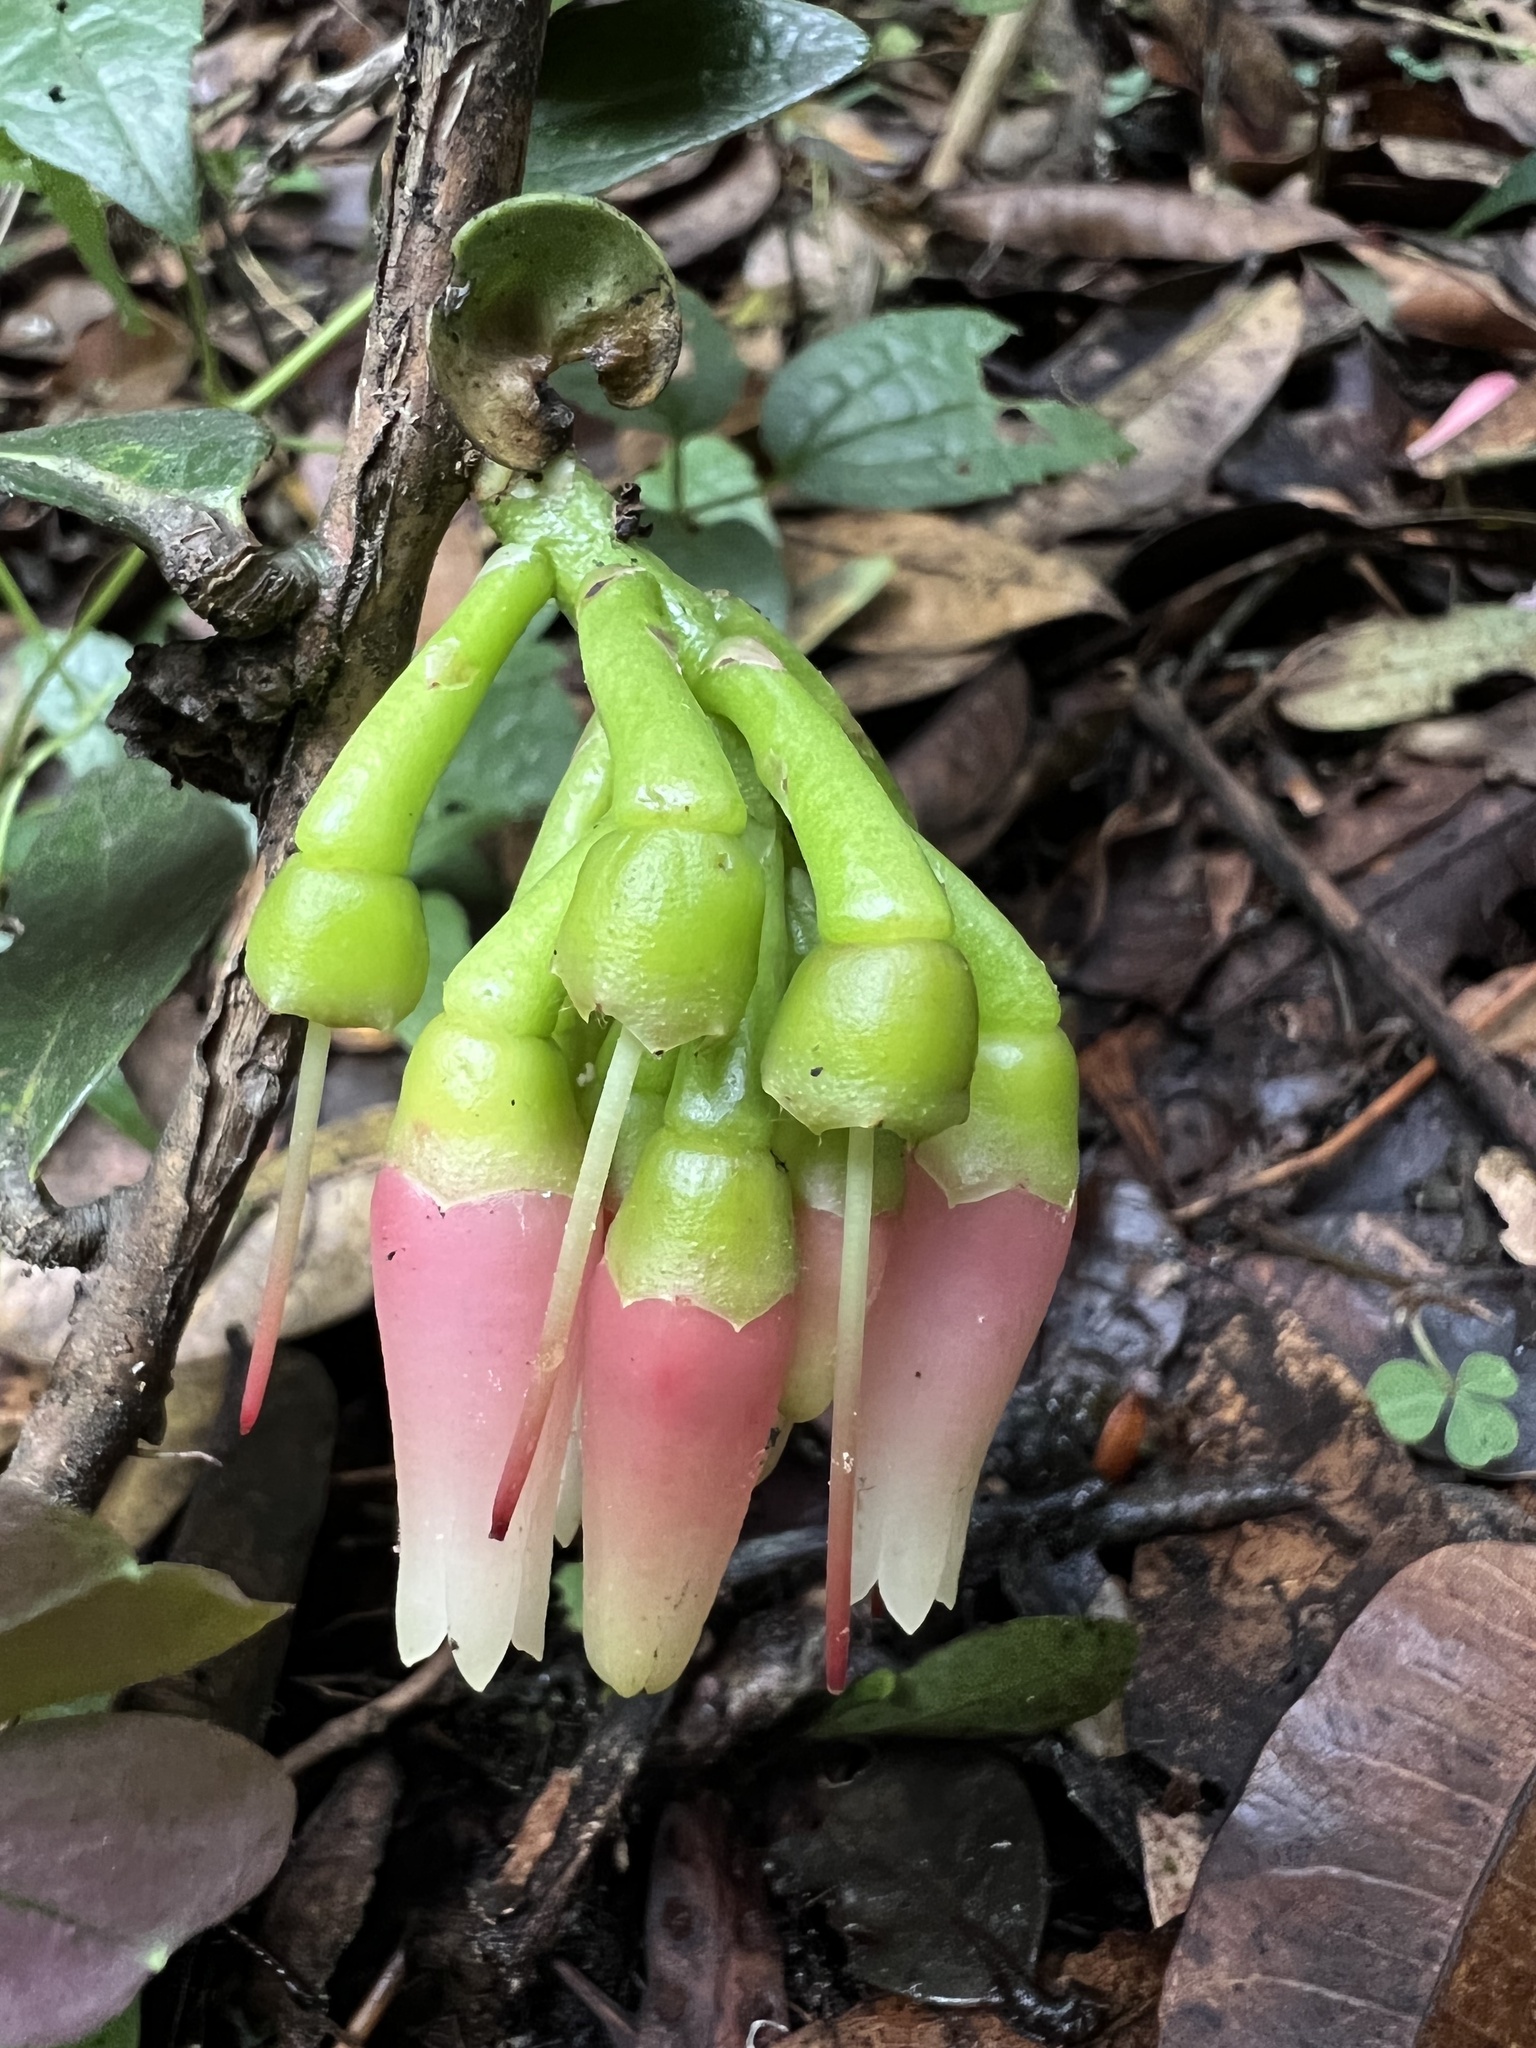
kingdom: Plantae
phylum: Tracheophyta
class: Magnoliopsida
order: Ericales
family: Ericaceae
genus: Macleania
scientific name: Macleania rupestris
